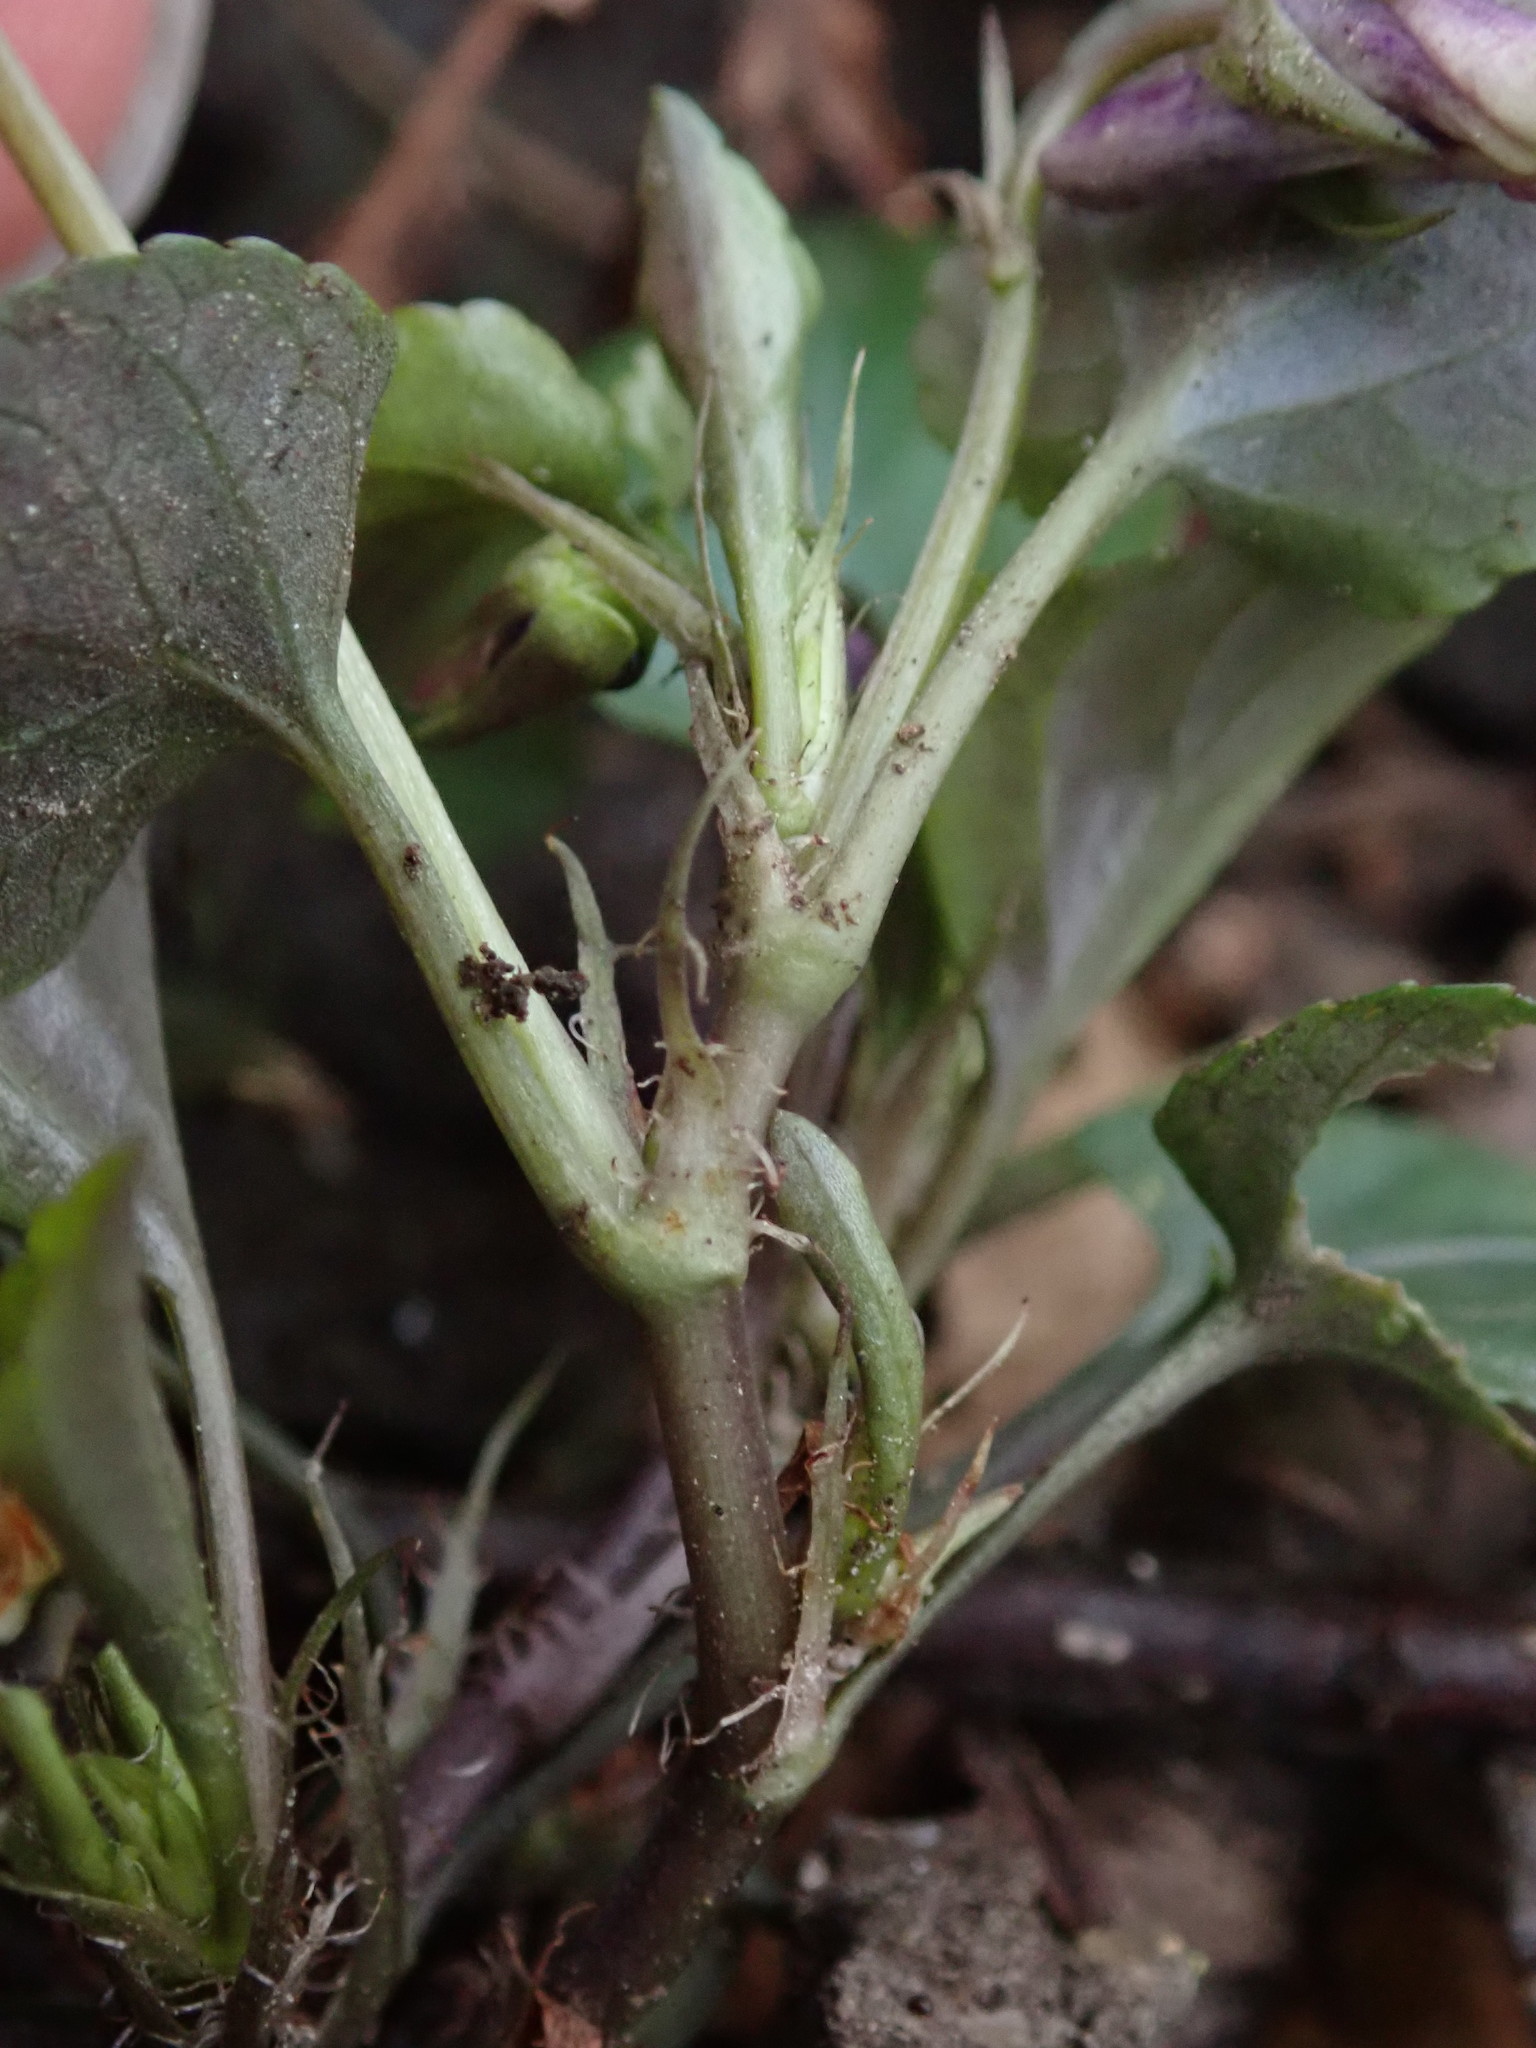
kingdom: Plantae
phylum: Tracheophyta
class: Magnoliopsida
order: Malpighiales
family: Violaceae
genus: Viola
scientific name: Viola reichenbachiana
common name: Early dog-violet
